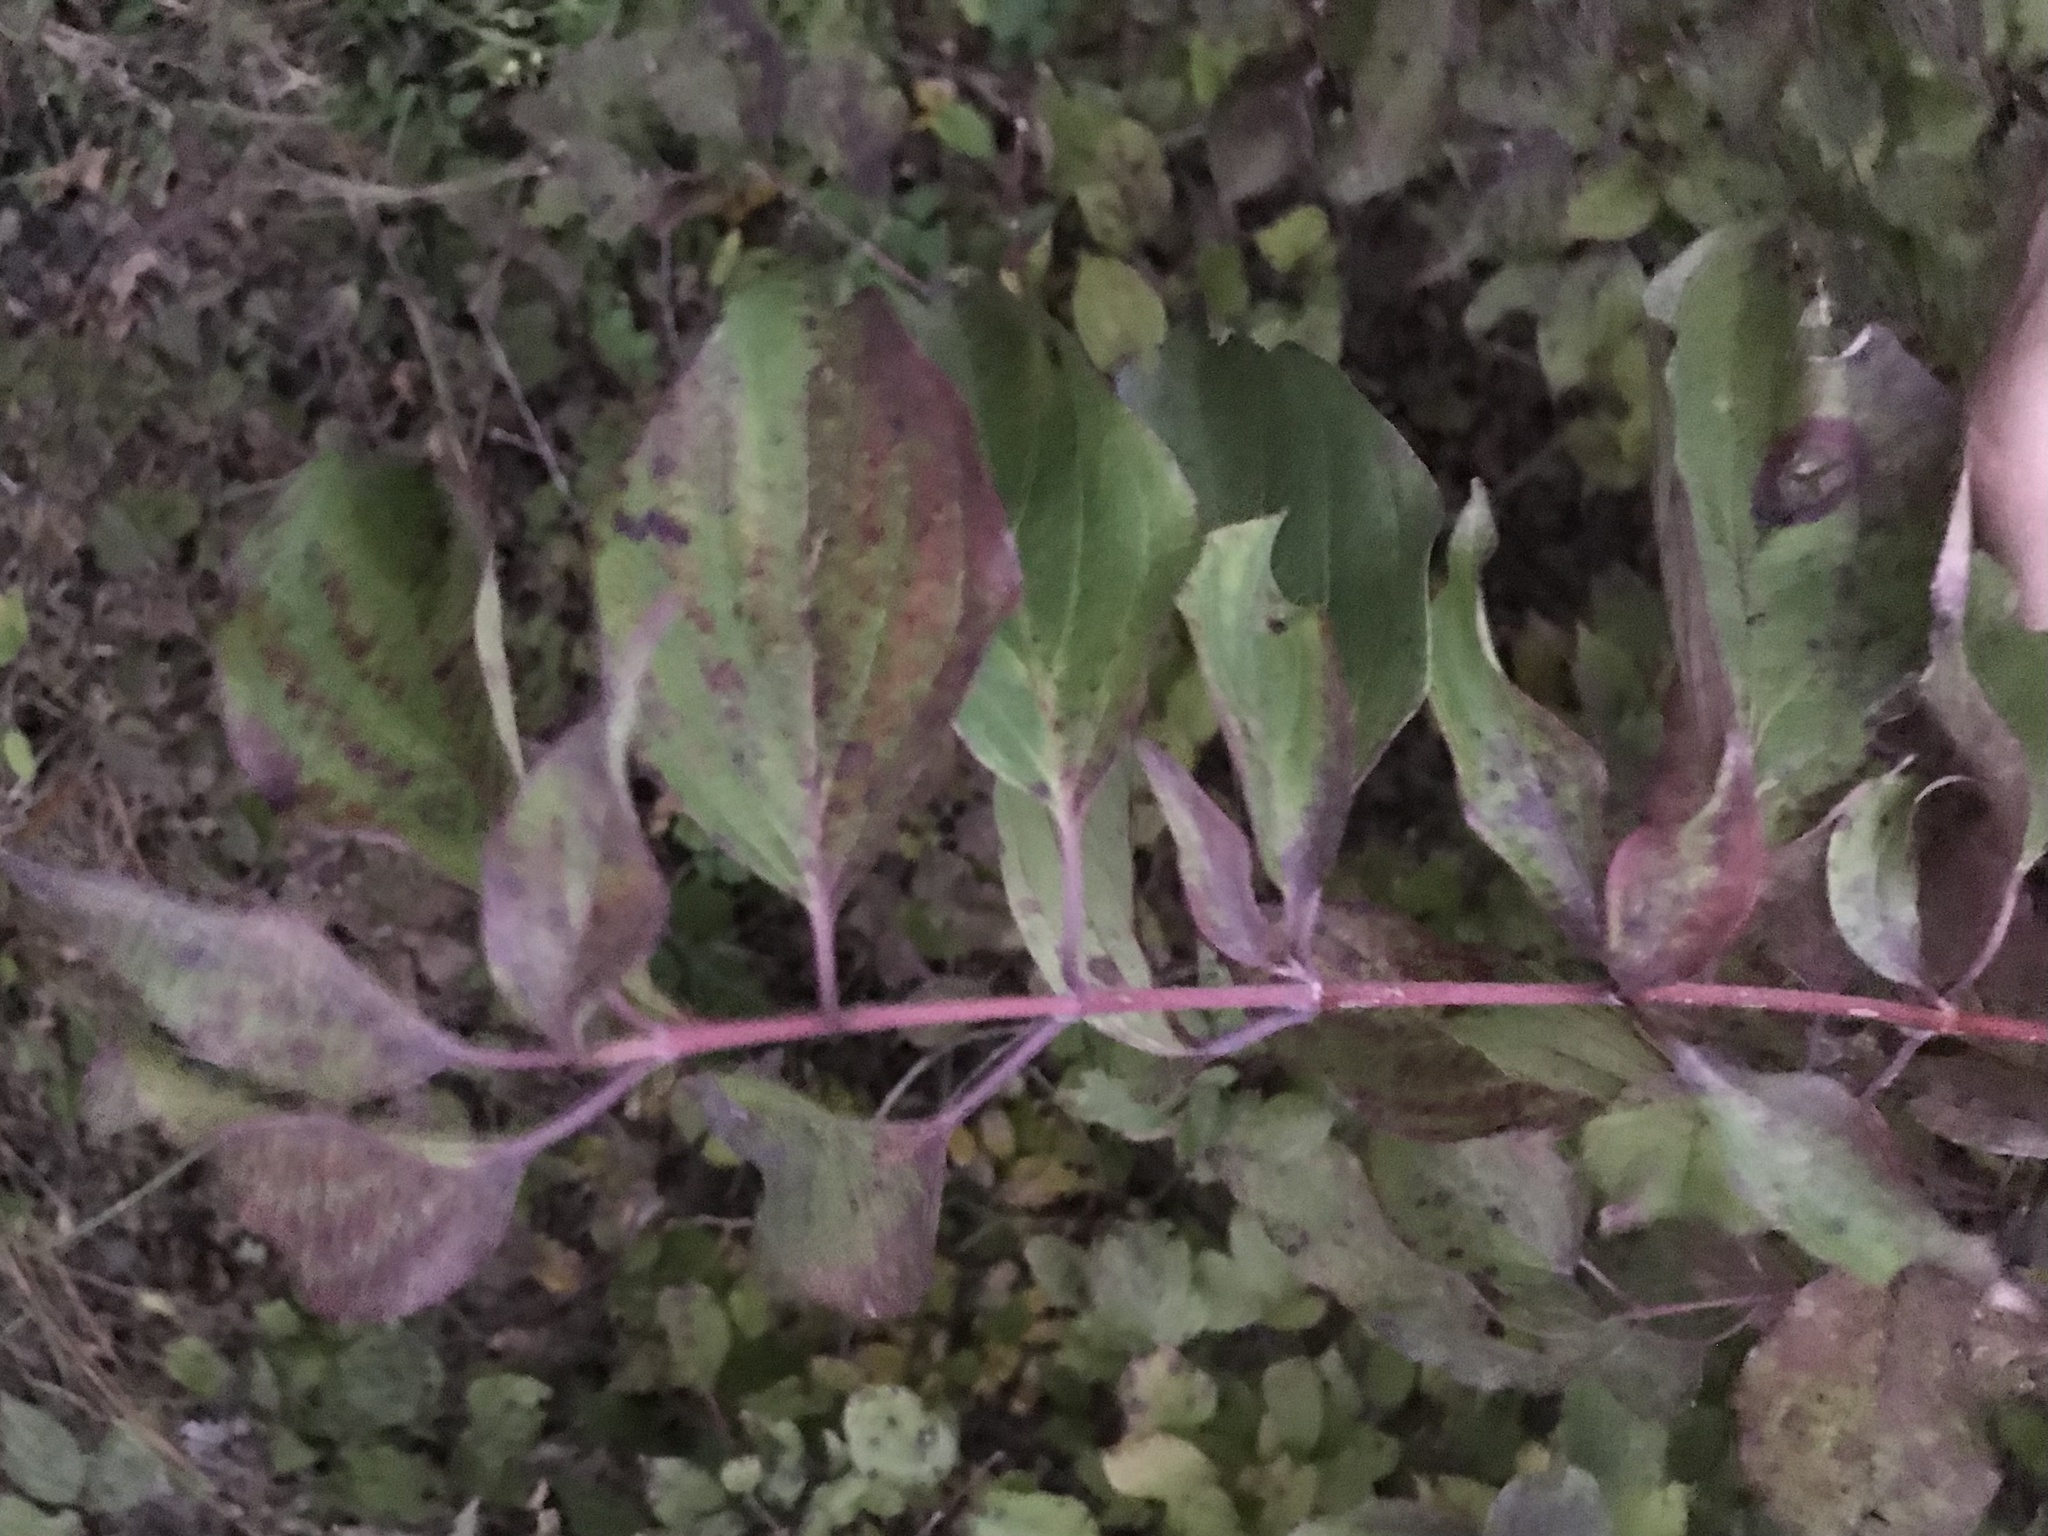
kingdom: Plantae
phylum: Tracheophyta
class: Magnoliopsida
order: Cornales
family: Cornaceae
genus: Cornus
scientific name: Cornus drummondii
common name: Rough-leaf dogwood
